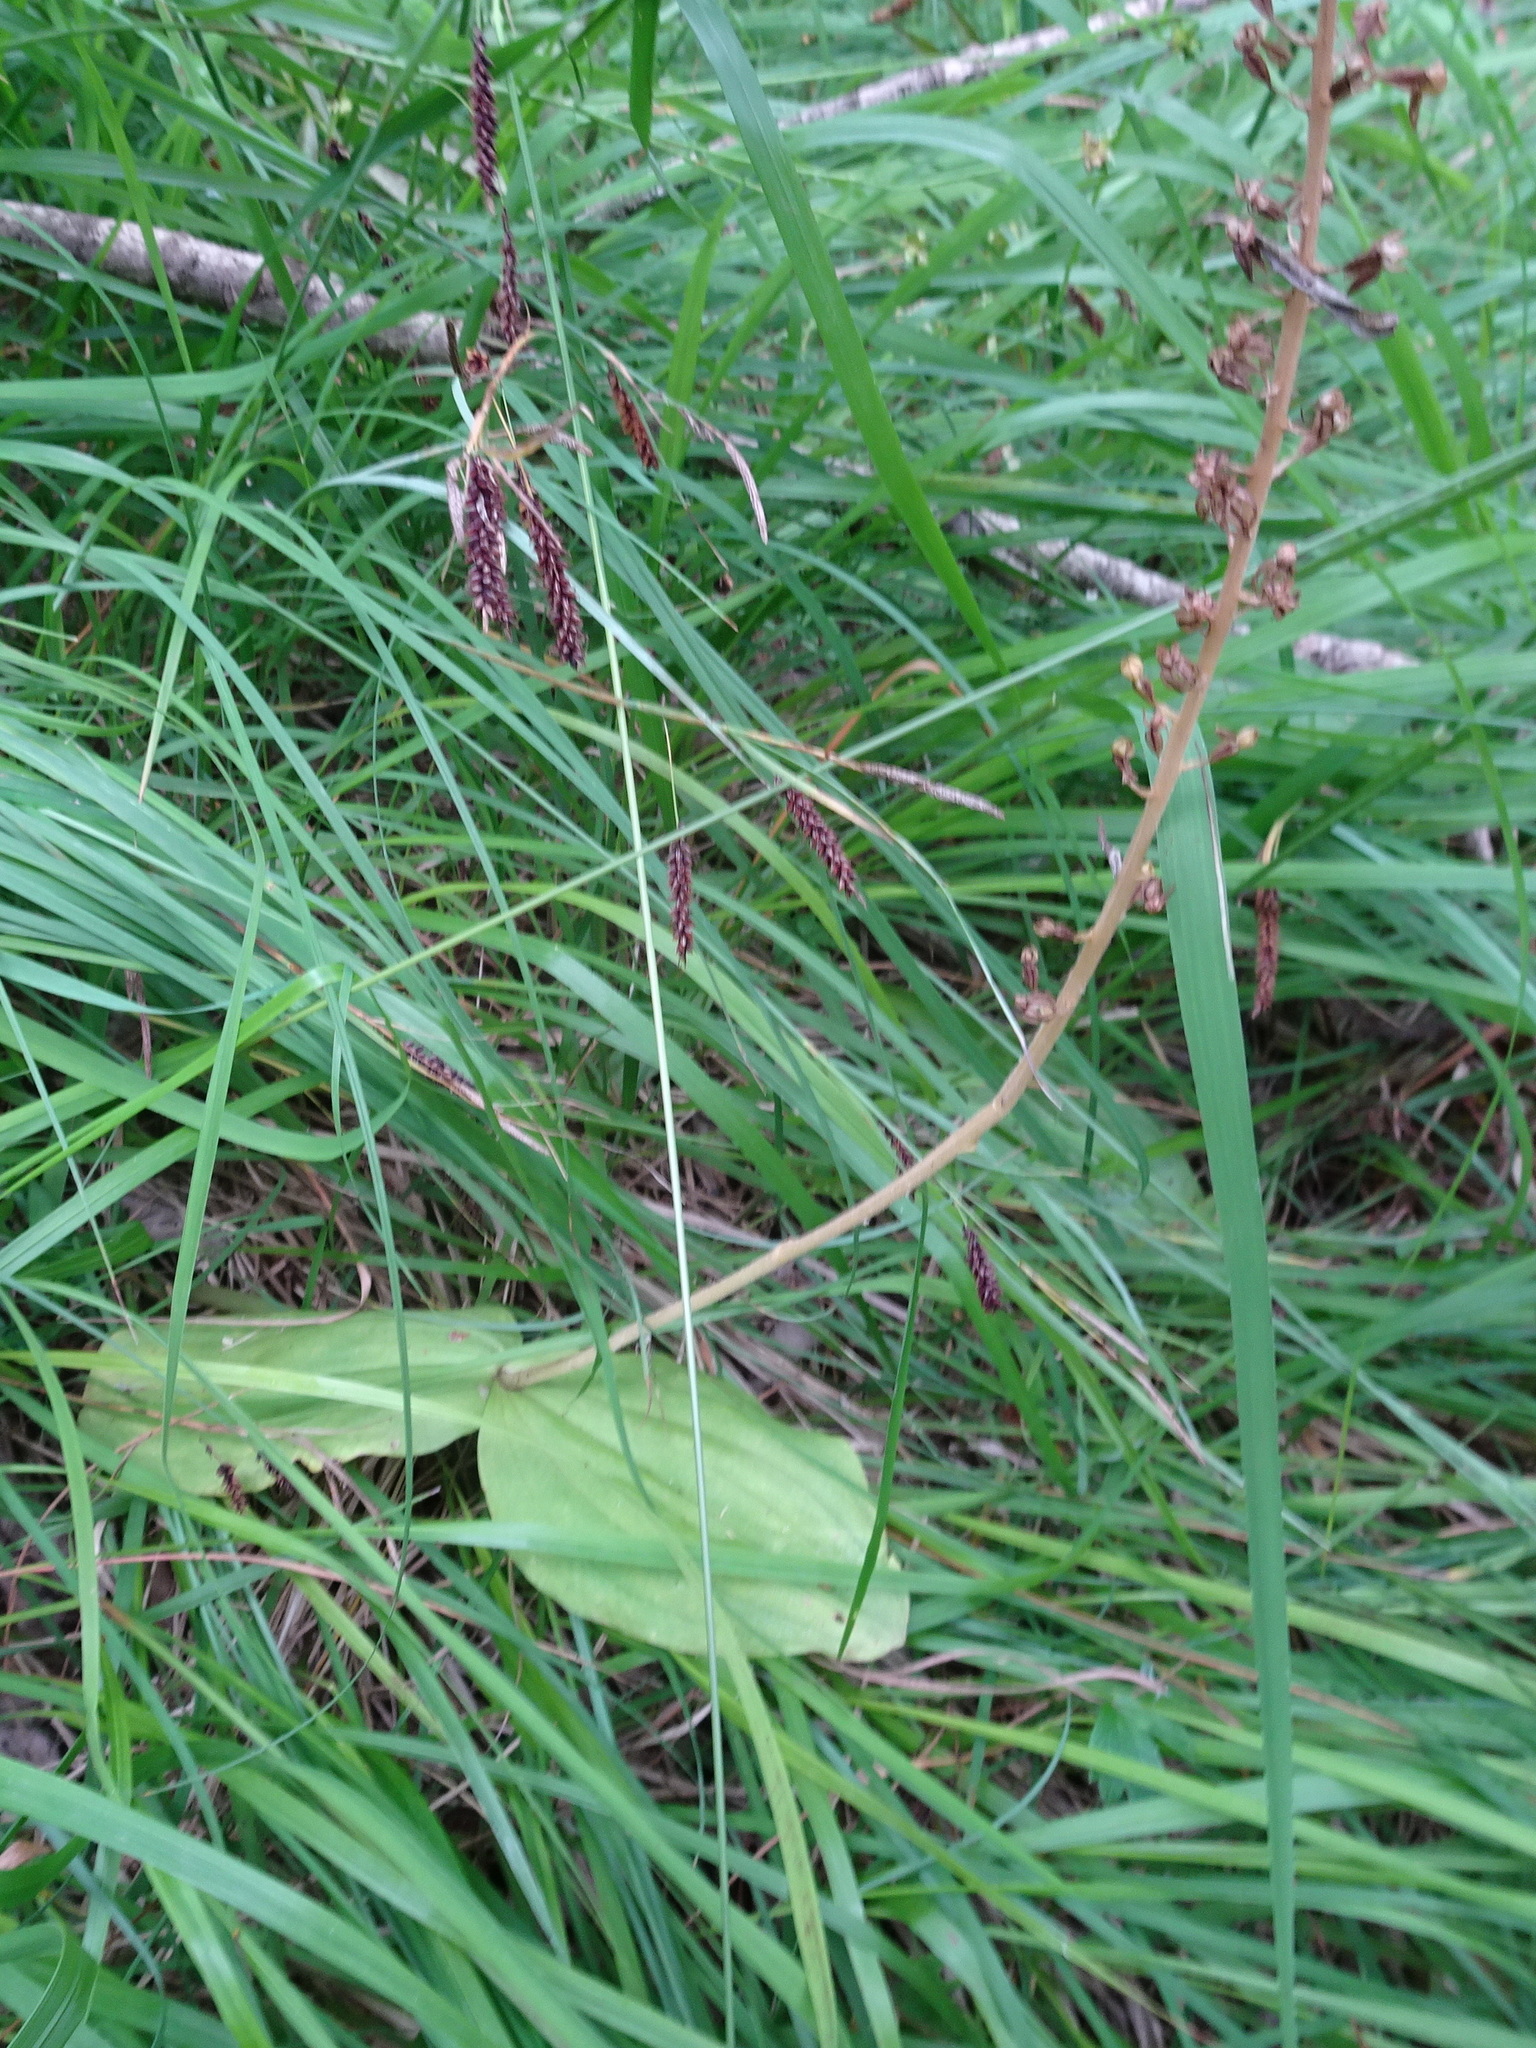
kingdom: Plantae
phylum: Tracheophyta
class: Liliopsida
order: Asparagales
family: Orchidaceae
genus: Neottia
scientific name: Neottia ovata
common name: Common twayblade
